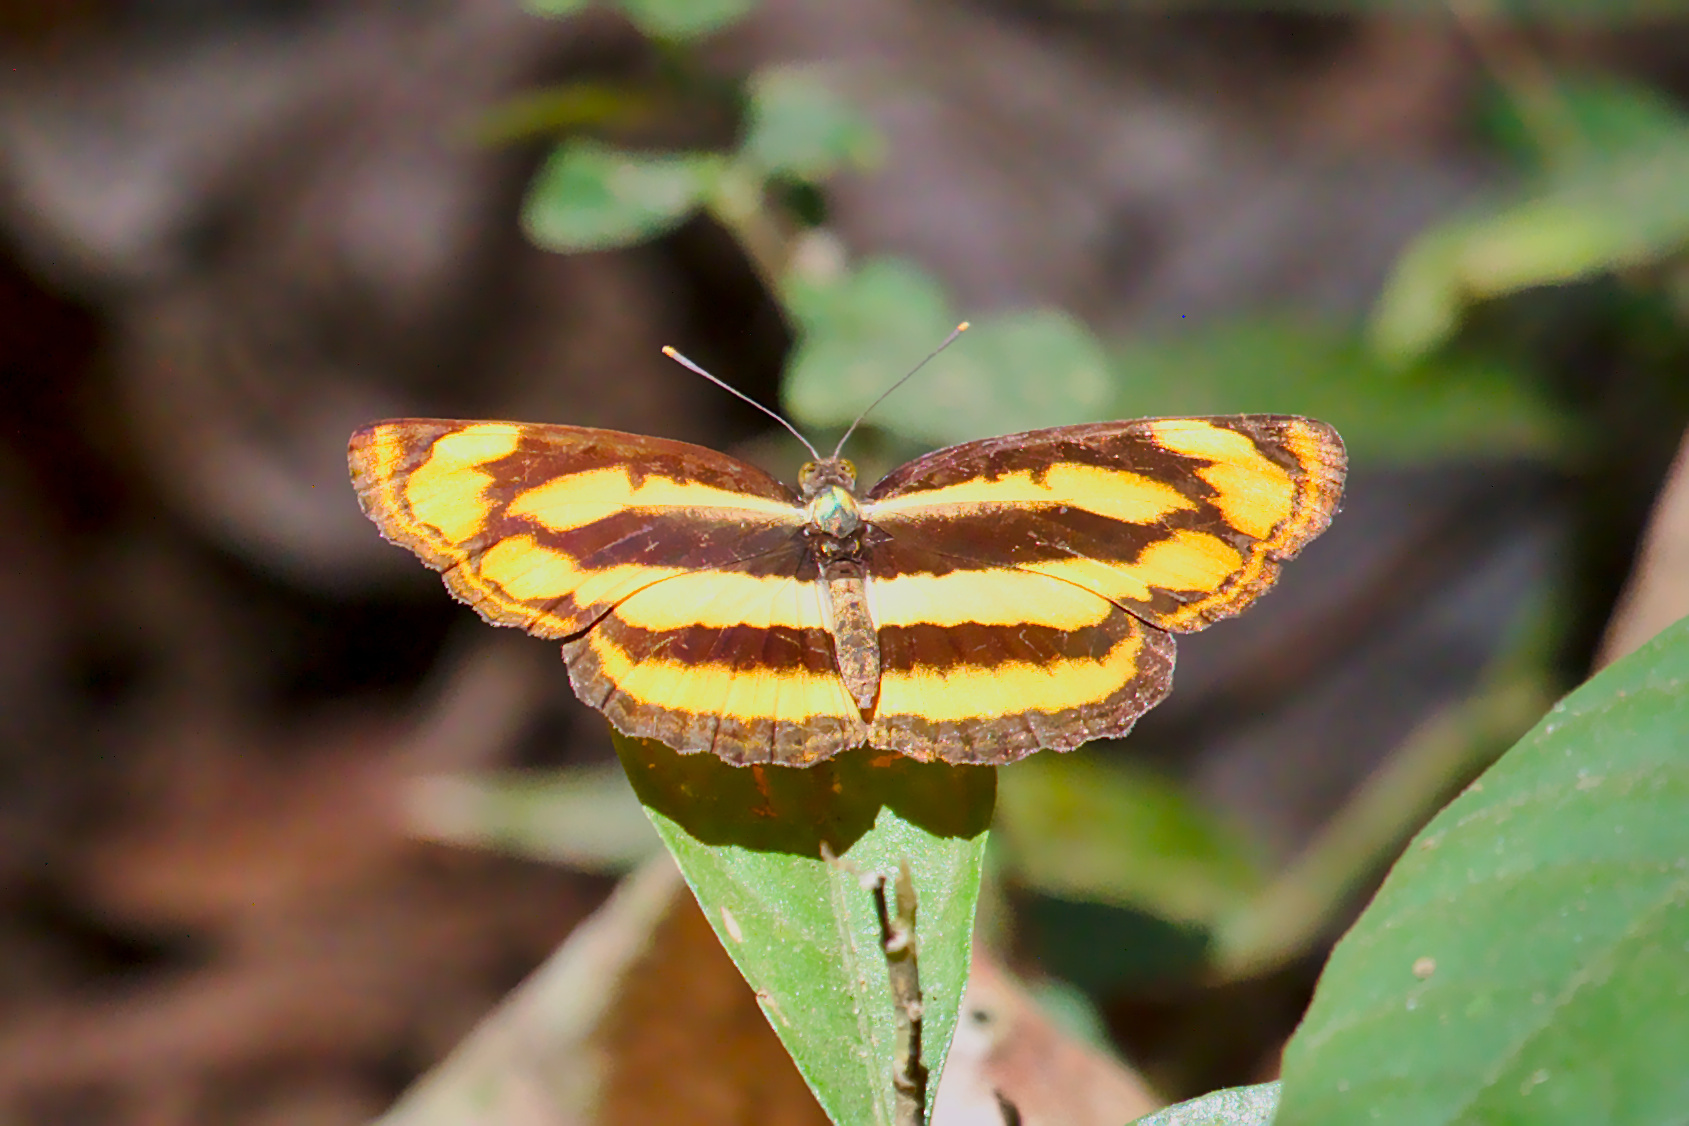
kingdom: Animalia
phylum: Arthropoda
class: Insecta
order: Lepidoptera
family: Nymphalidae
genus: Pantoporia
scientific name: Pantoporia hordonia
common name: Common lascar
